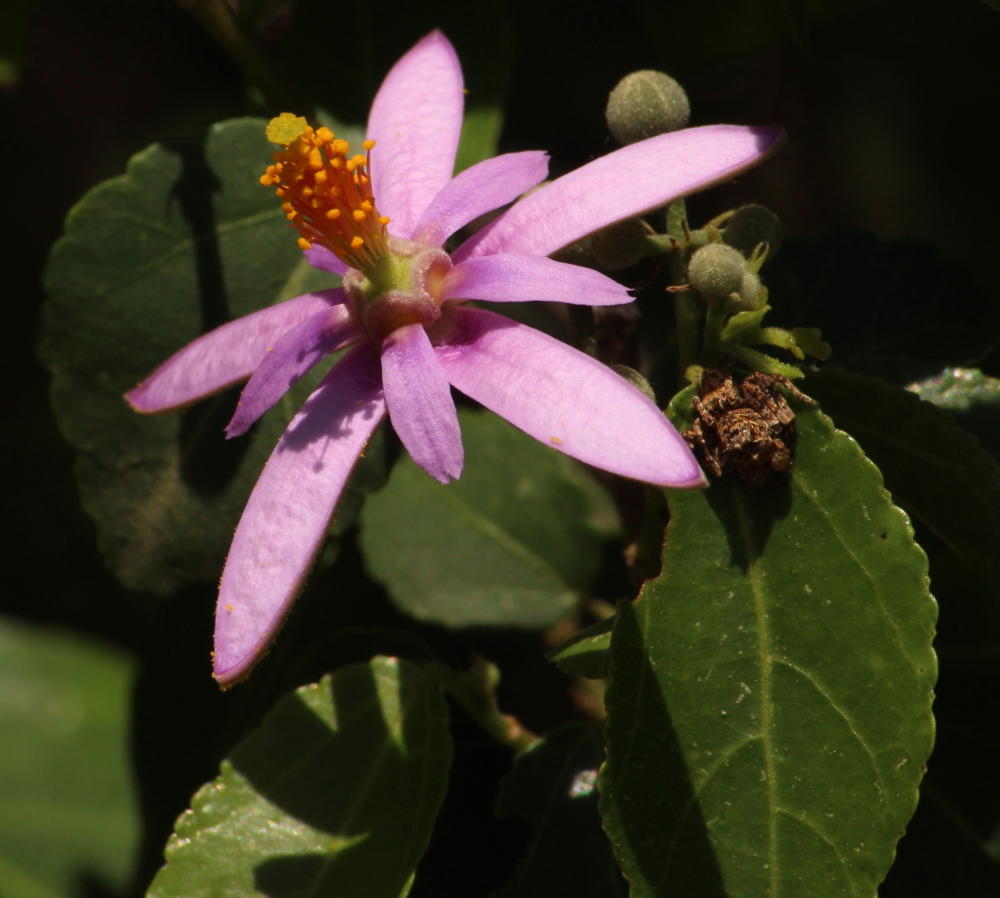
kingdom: Plantae
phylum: Tracheophyta
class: Magnoliopsida
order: Malvales
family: Malvaceae
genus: Grewia
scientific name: Grewia occidentalis
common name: Crossberry
